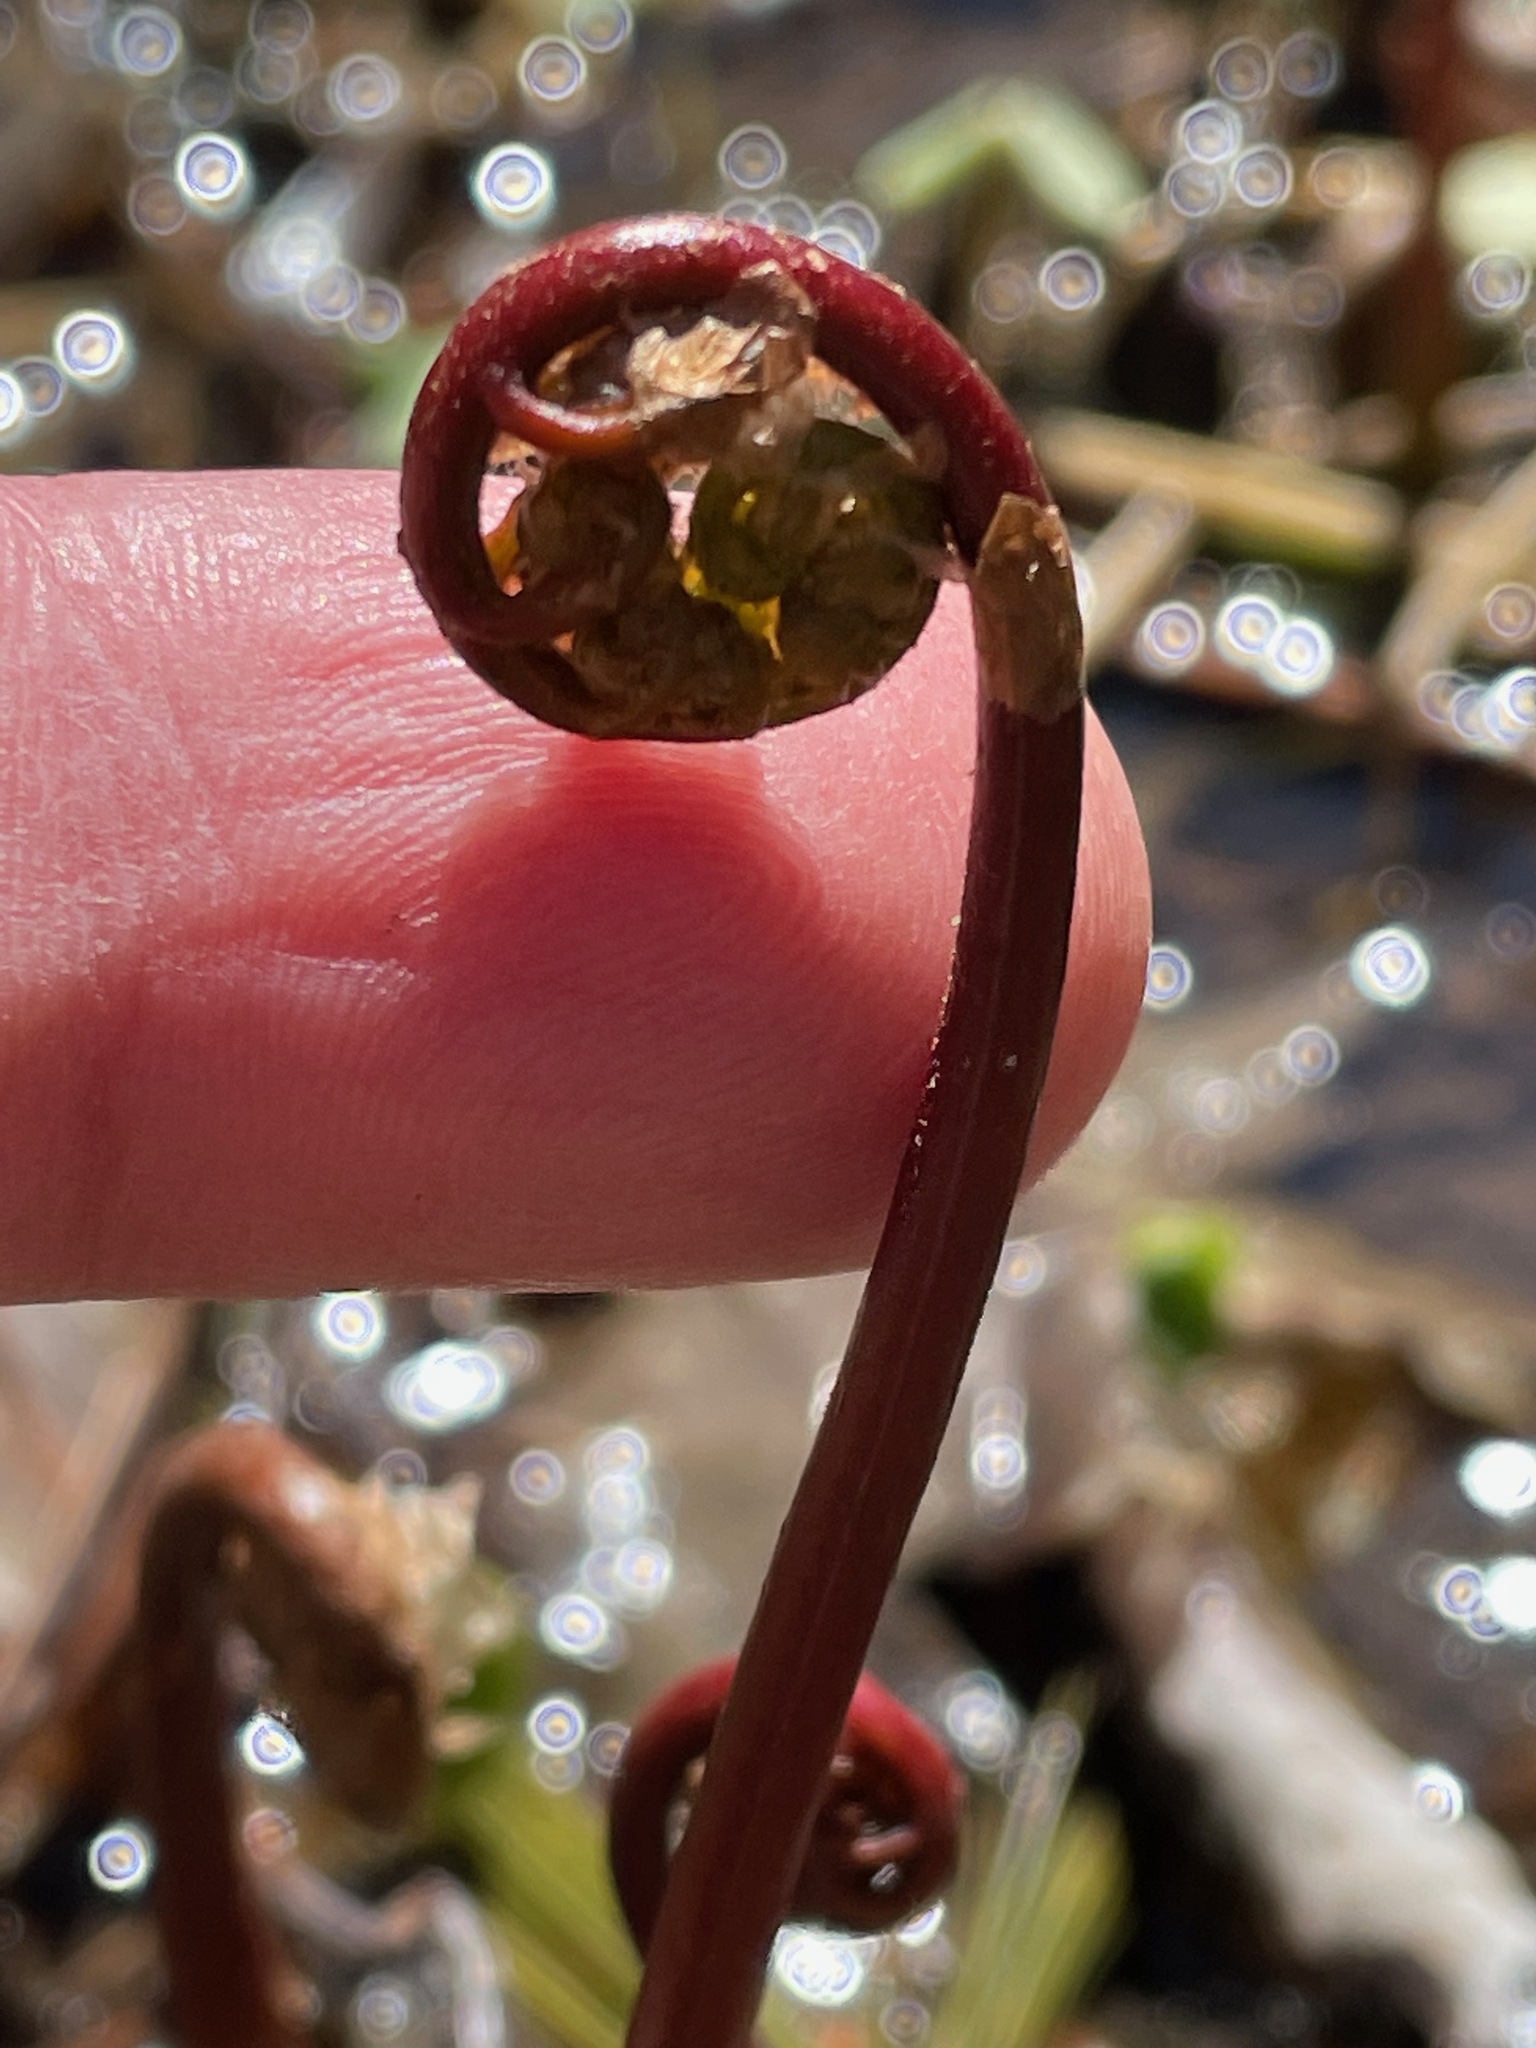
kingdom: Plantae
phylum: Tracheophyta
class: Polypodiopsida
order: Polypodiales
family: Onocleaceae
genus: Onoclea
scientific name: Onoclea sensibilis
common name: Sensitive fern
